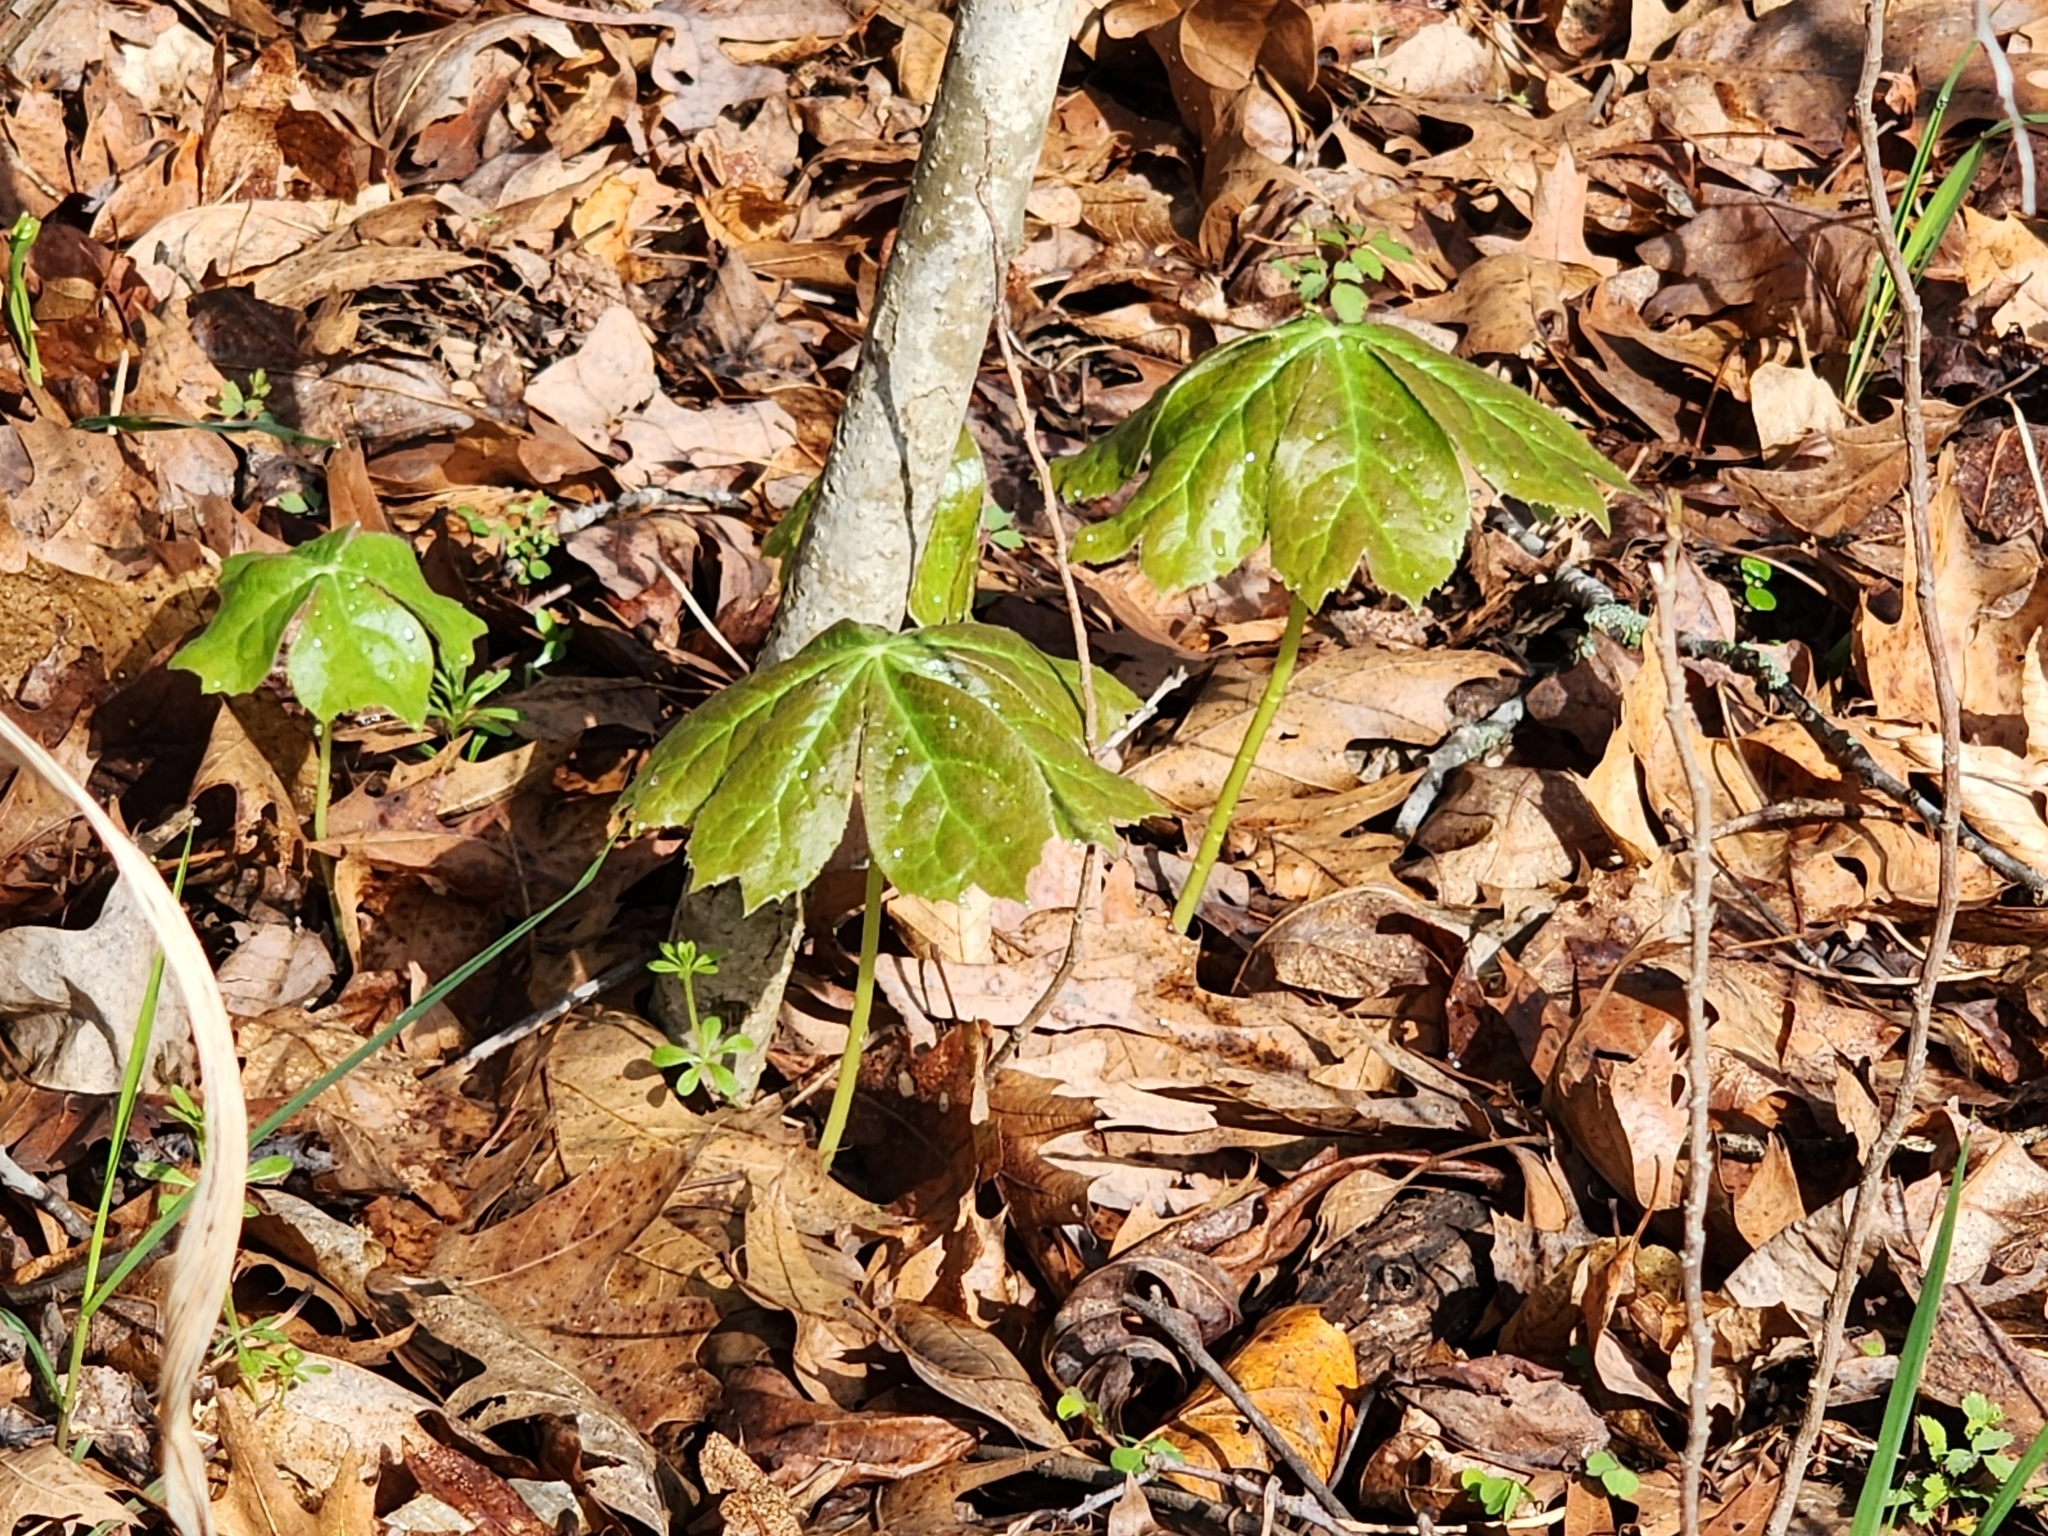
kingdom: Plantae
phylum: Tracheophyta
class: Magnoliopsida
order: Ranunculales
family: Berberidaceae
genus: Podophyllum
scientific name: Podophyllum peltatum
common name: Wild mandrake
